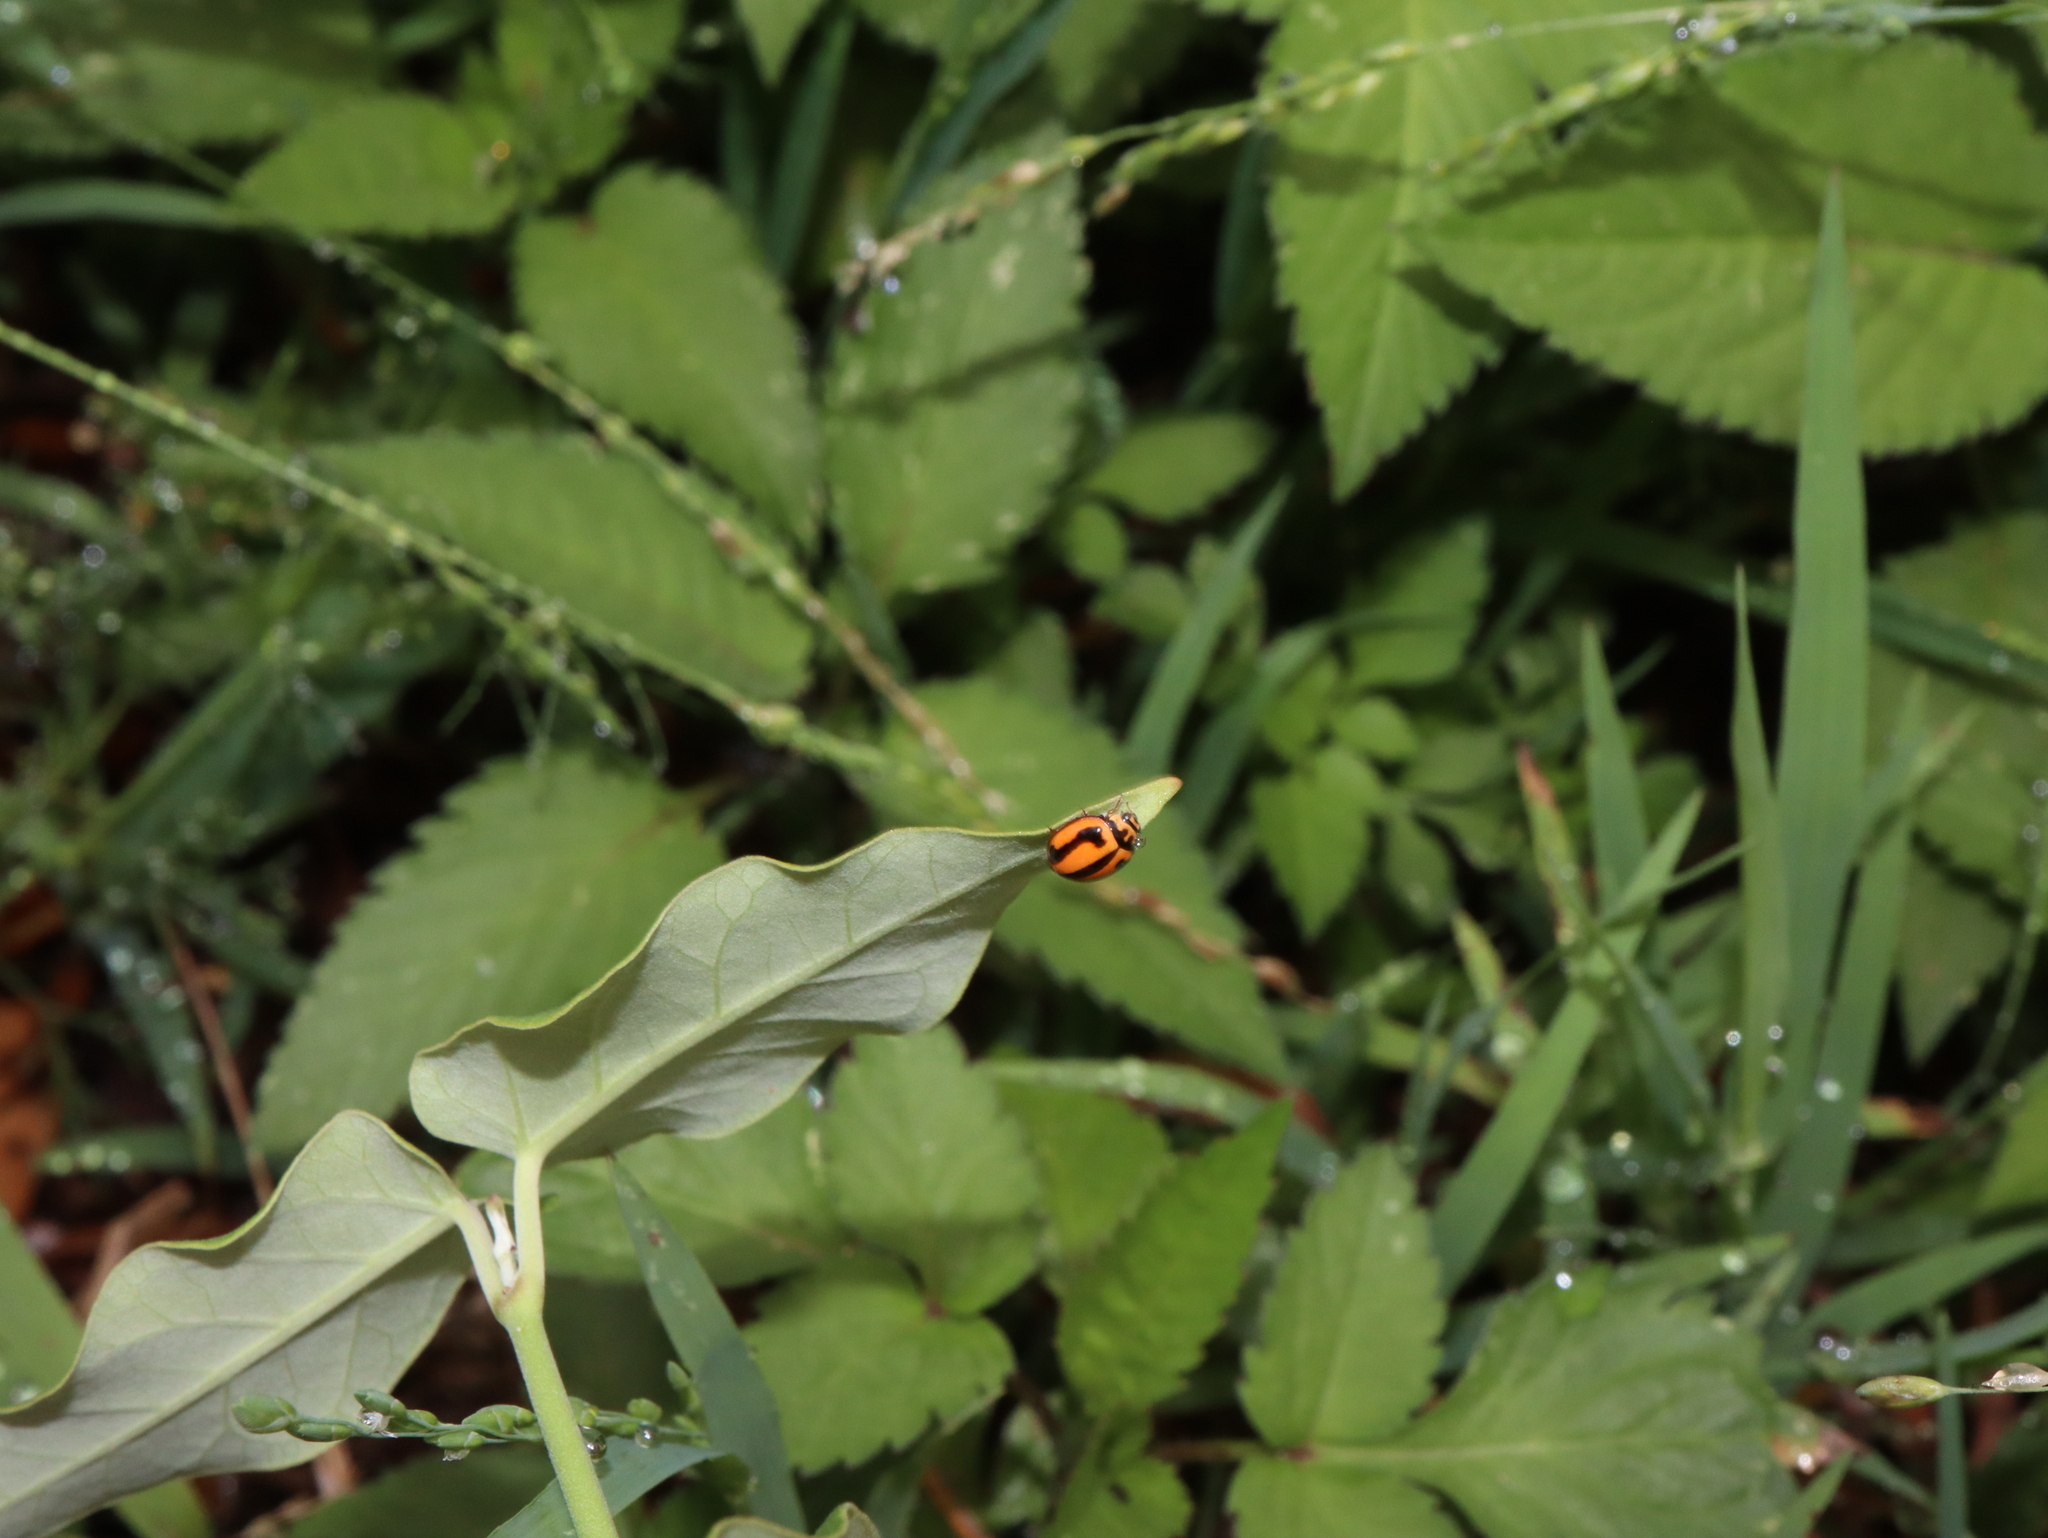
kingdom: Animalia
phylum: Arthropoda
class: Insecta
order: Coleoptera
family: Coccinellidae
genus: Micraspis
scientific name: Micraspis frenata
